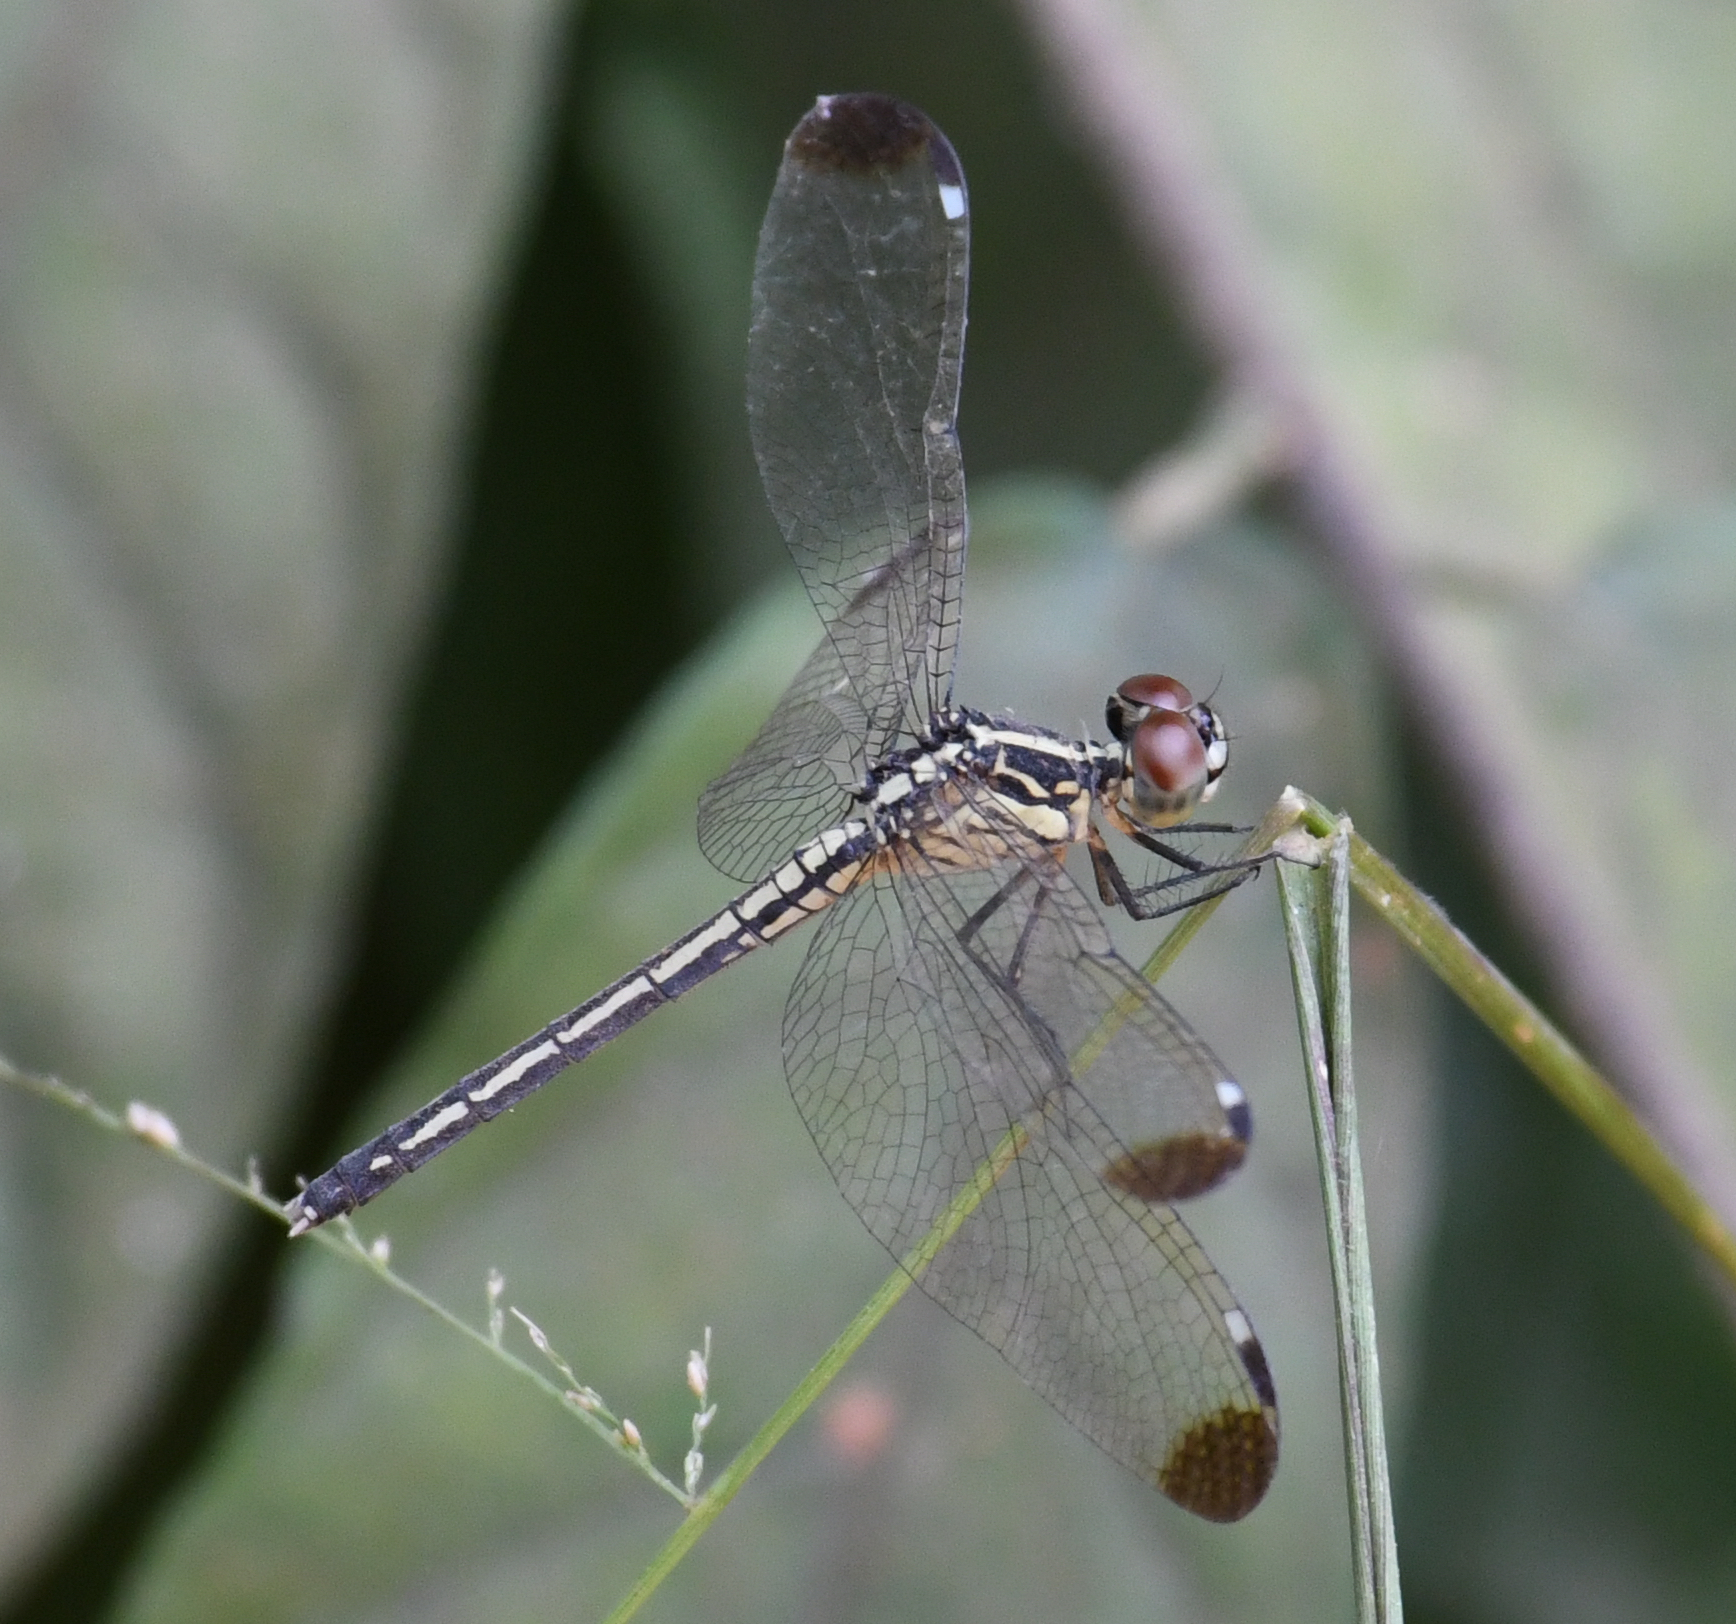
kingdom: Animalia
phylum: Arthropoda
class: Insecta
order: Odonata
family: Libellulidae
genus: Hemistigma
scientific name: Hemistigma albipunctum
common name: African pied-spot
